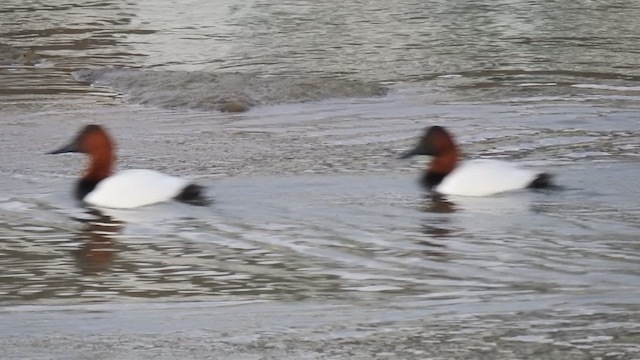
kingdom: Animalia
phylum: Chordata
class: Aves
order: Anseriformes
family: Anatidae
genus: Aythya
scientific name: Aythya valisineria
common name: Canvasback
